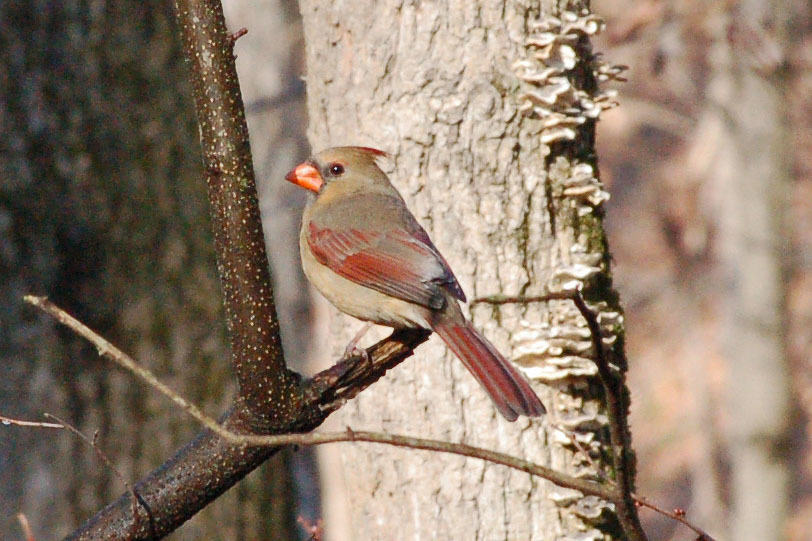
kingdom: Animalia
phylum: Chordata
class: Aves
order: Passeriformes
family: Cardinalidae
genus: Cardinalis
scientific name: Cardinalis cardinalis
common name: Northern cardinal
